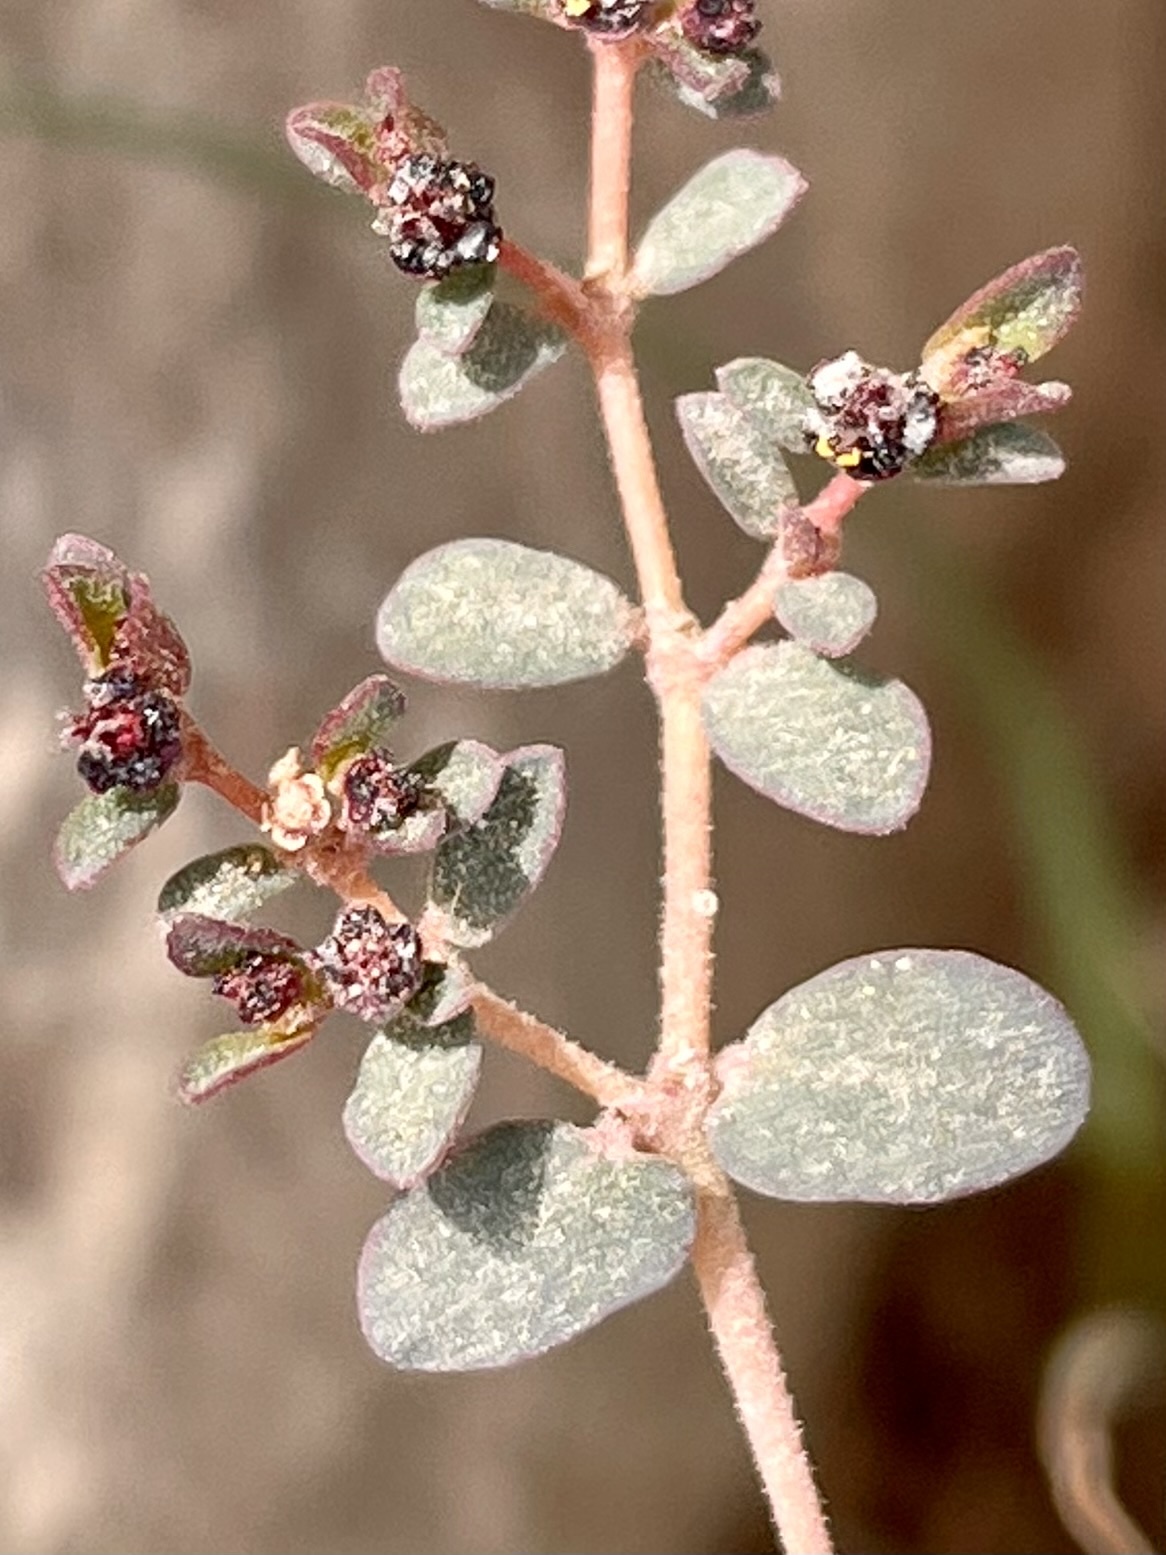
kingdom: Plantae
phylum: Tracheophyta
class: Magnoliopsida
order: Malpighiales
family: Euphorbiaceae
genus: Euphorbia
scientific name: Euphorbia polycarpa
